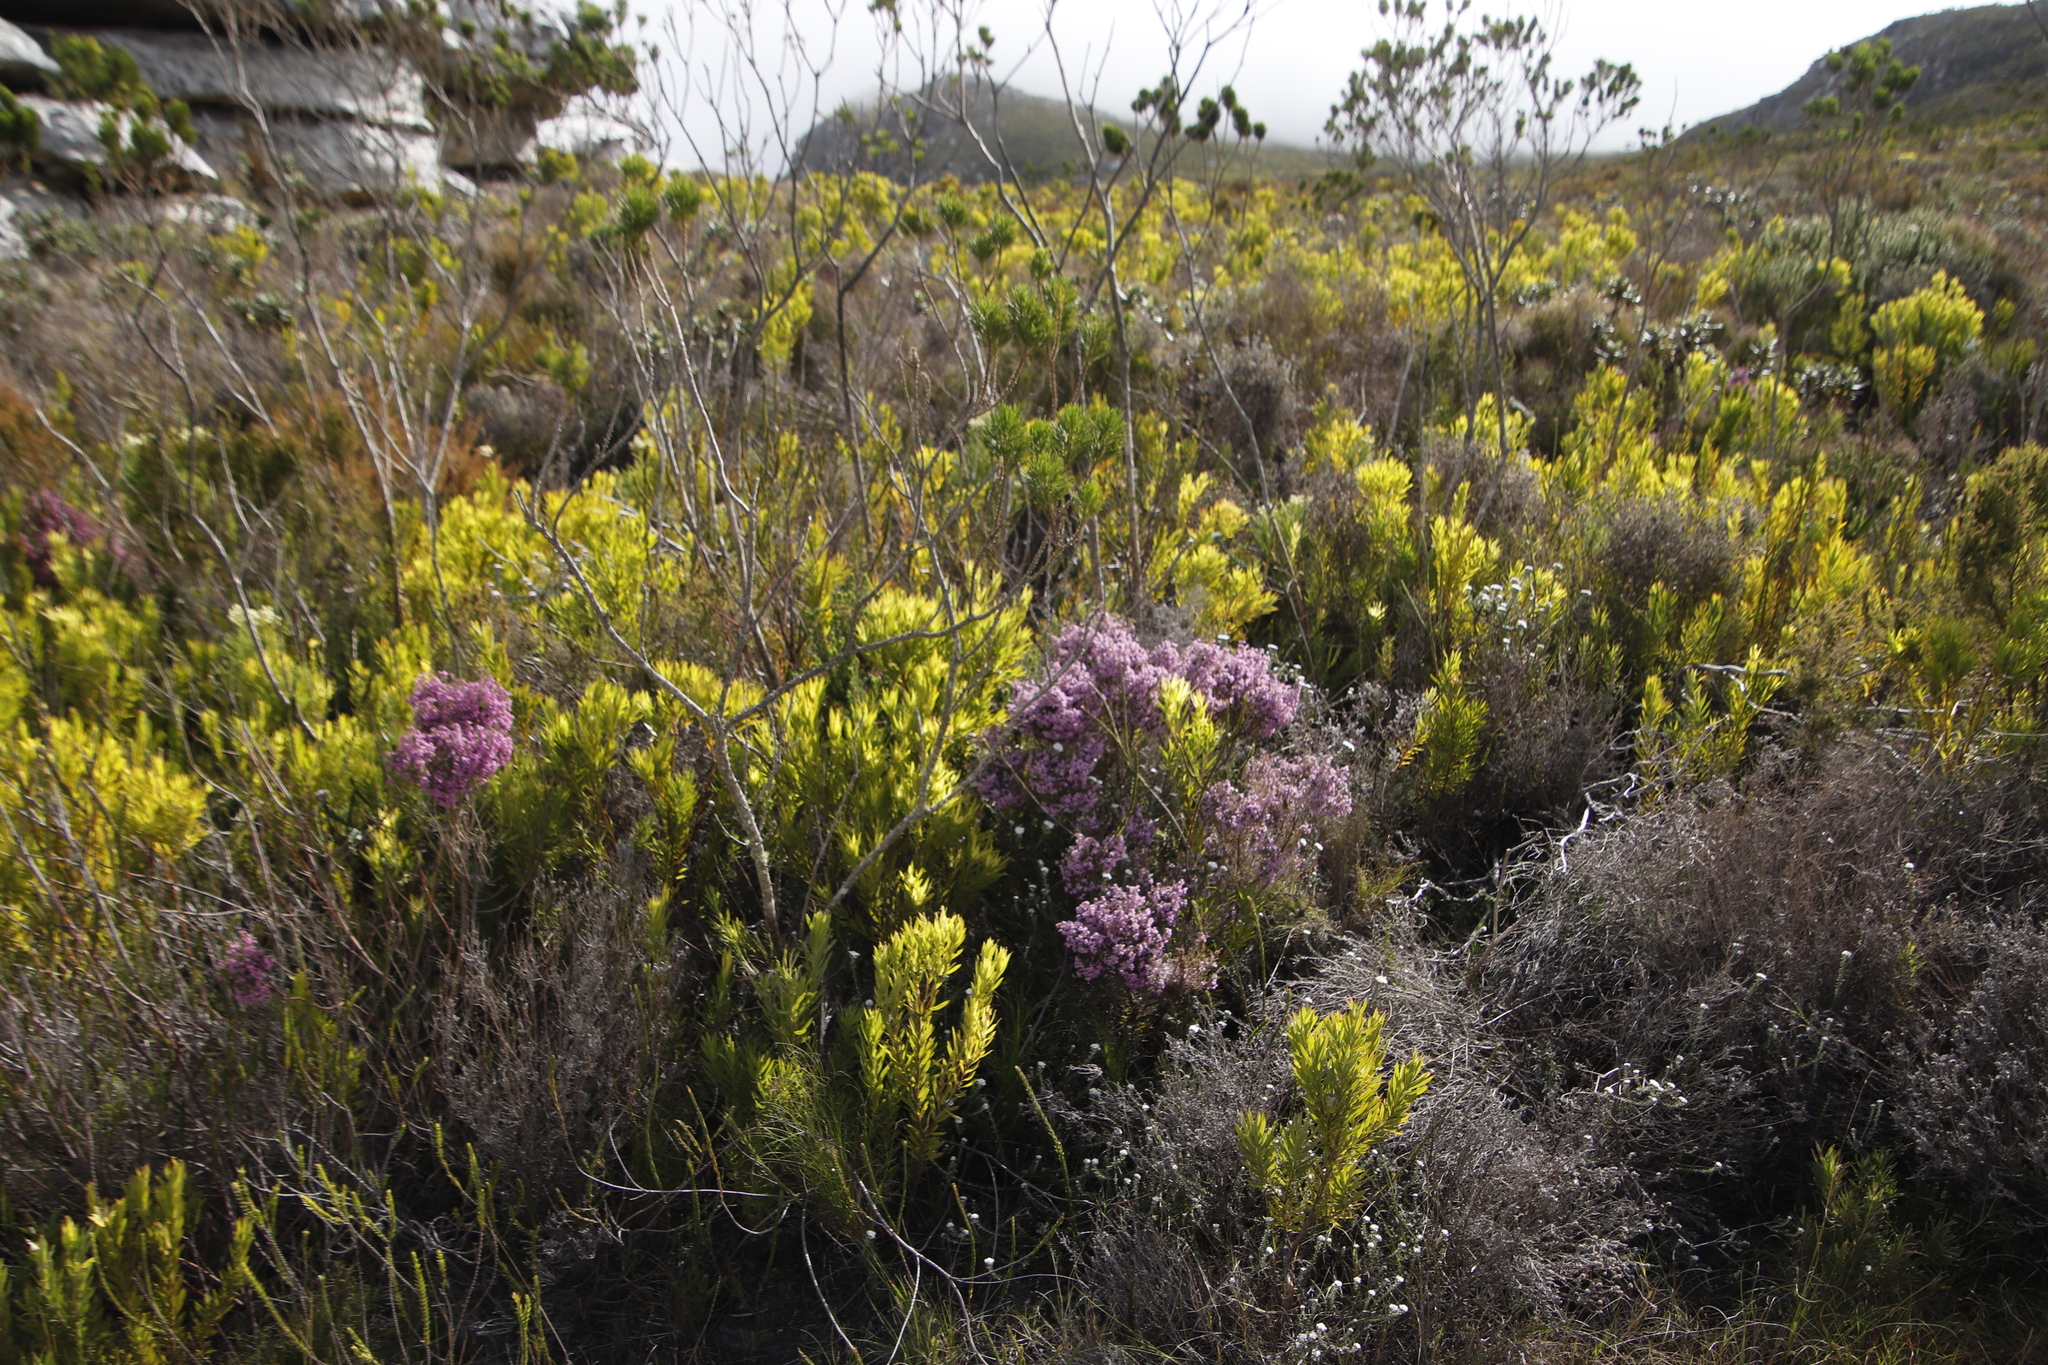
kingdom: Plantae
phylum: Tracheophyta
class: Magnoliopsida
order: Ericales
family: Ericaceae
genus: Erica
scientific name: Erica hirtiflora
